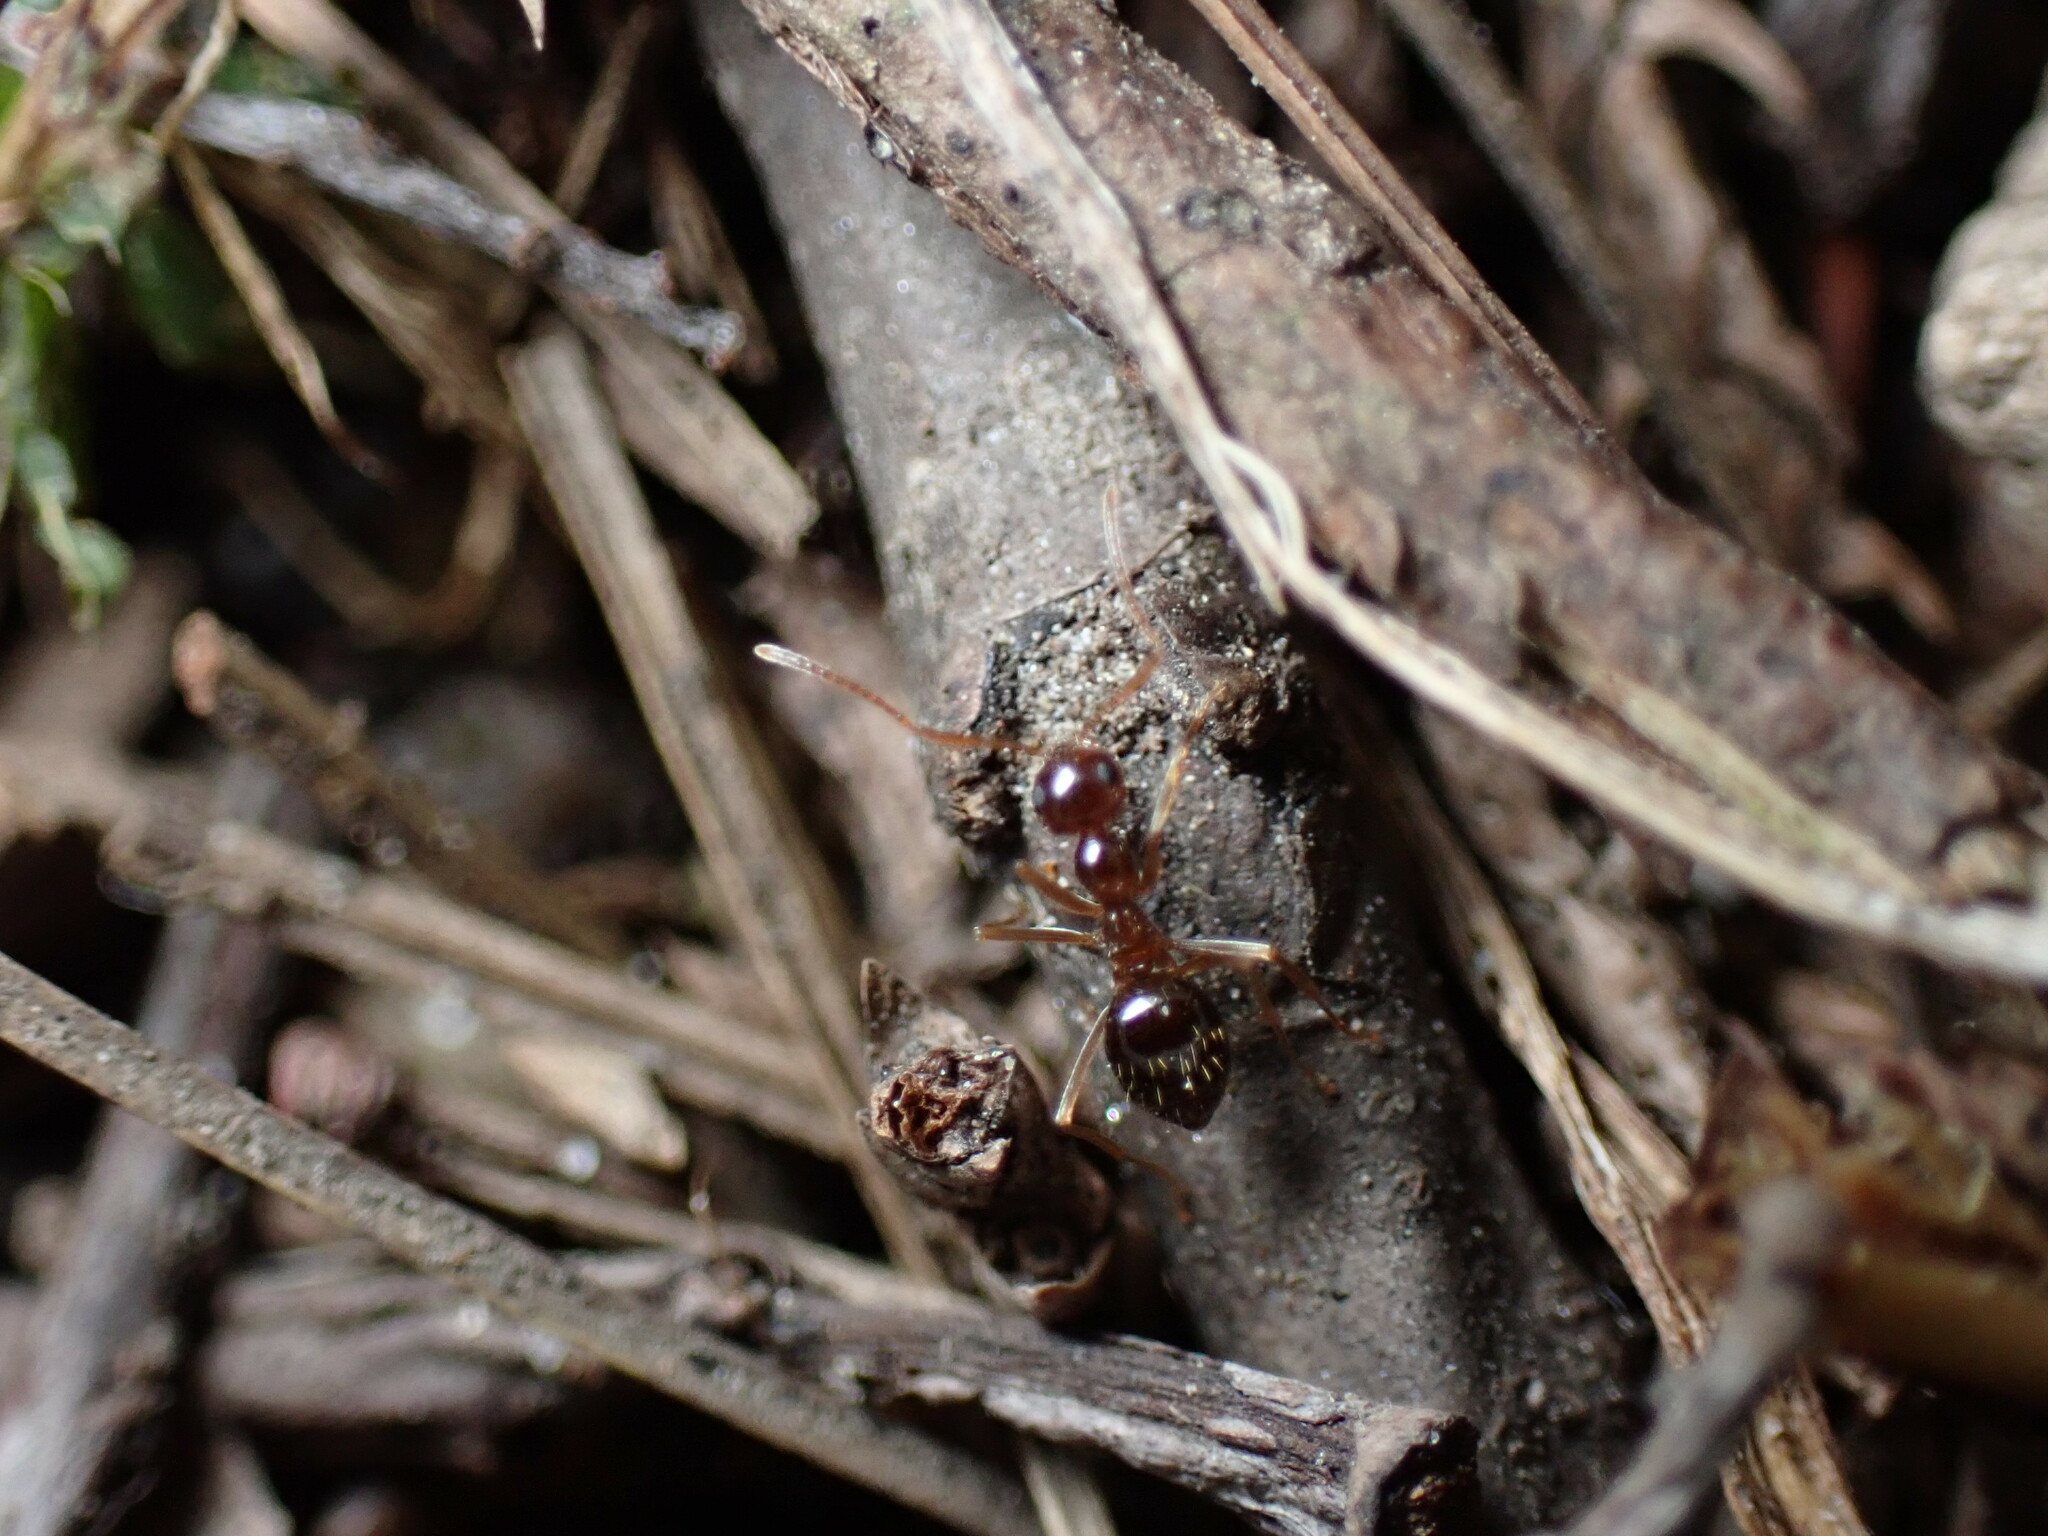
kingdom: Animalia
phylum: Arthropoda
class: Insecta
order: Hymenoptera
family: Formicidae
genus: Prenolepis
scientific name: Prenolepis imparis
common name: Small honey ant
